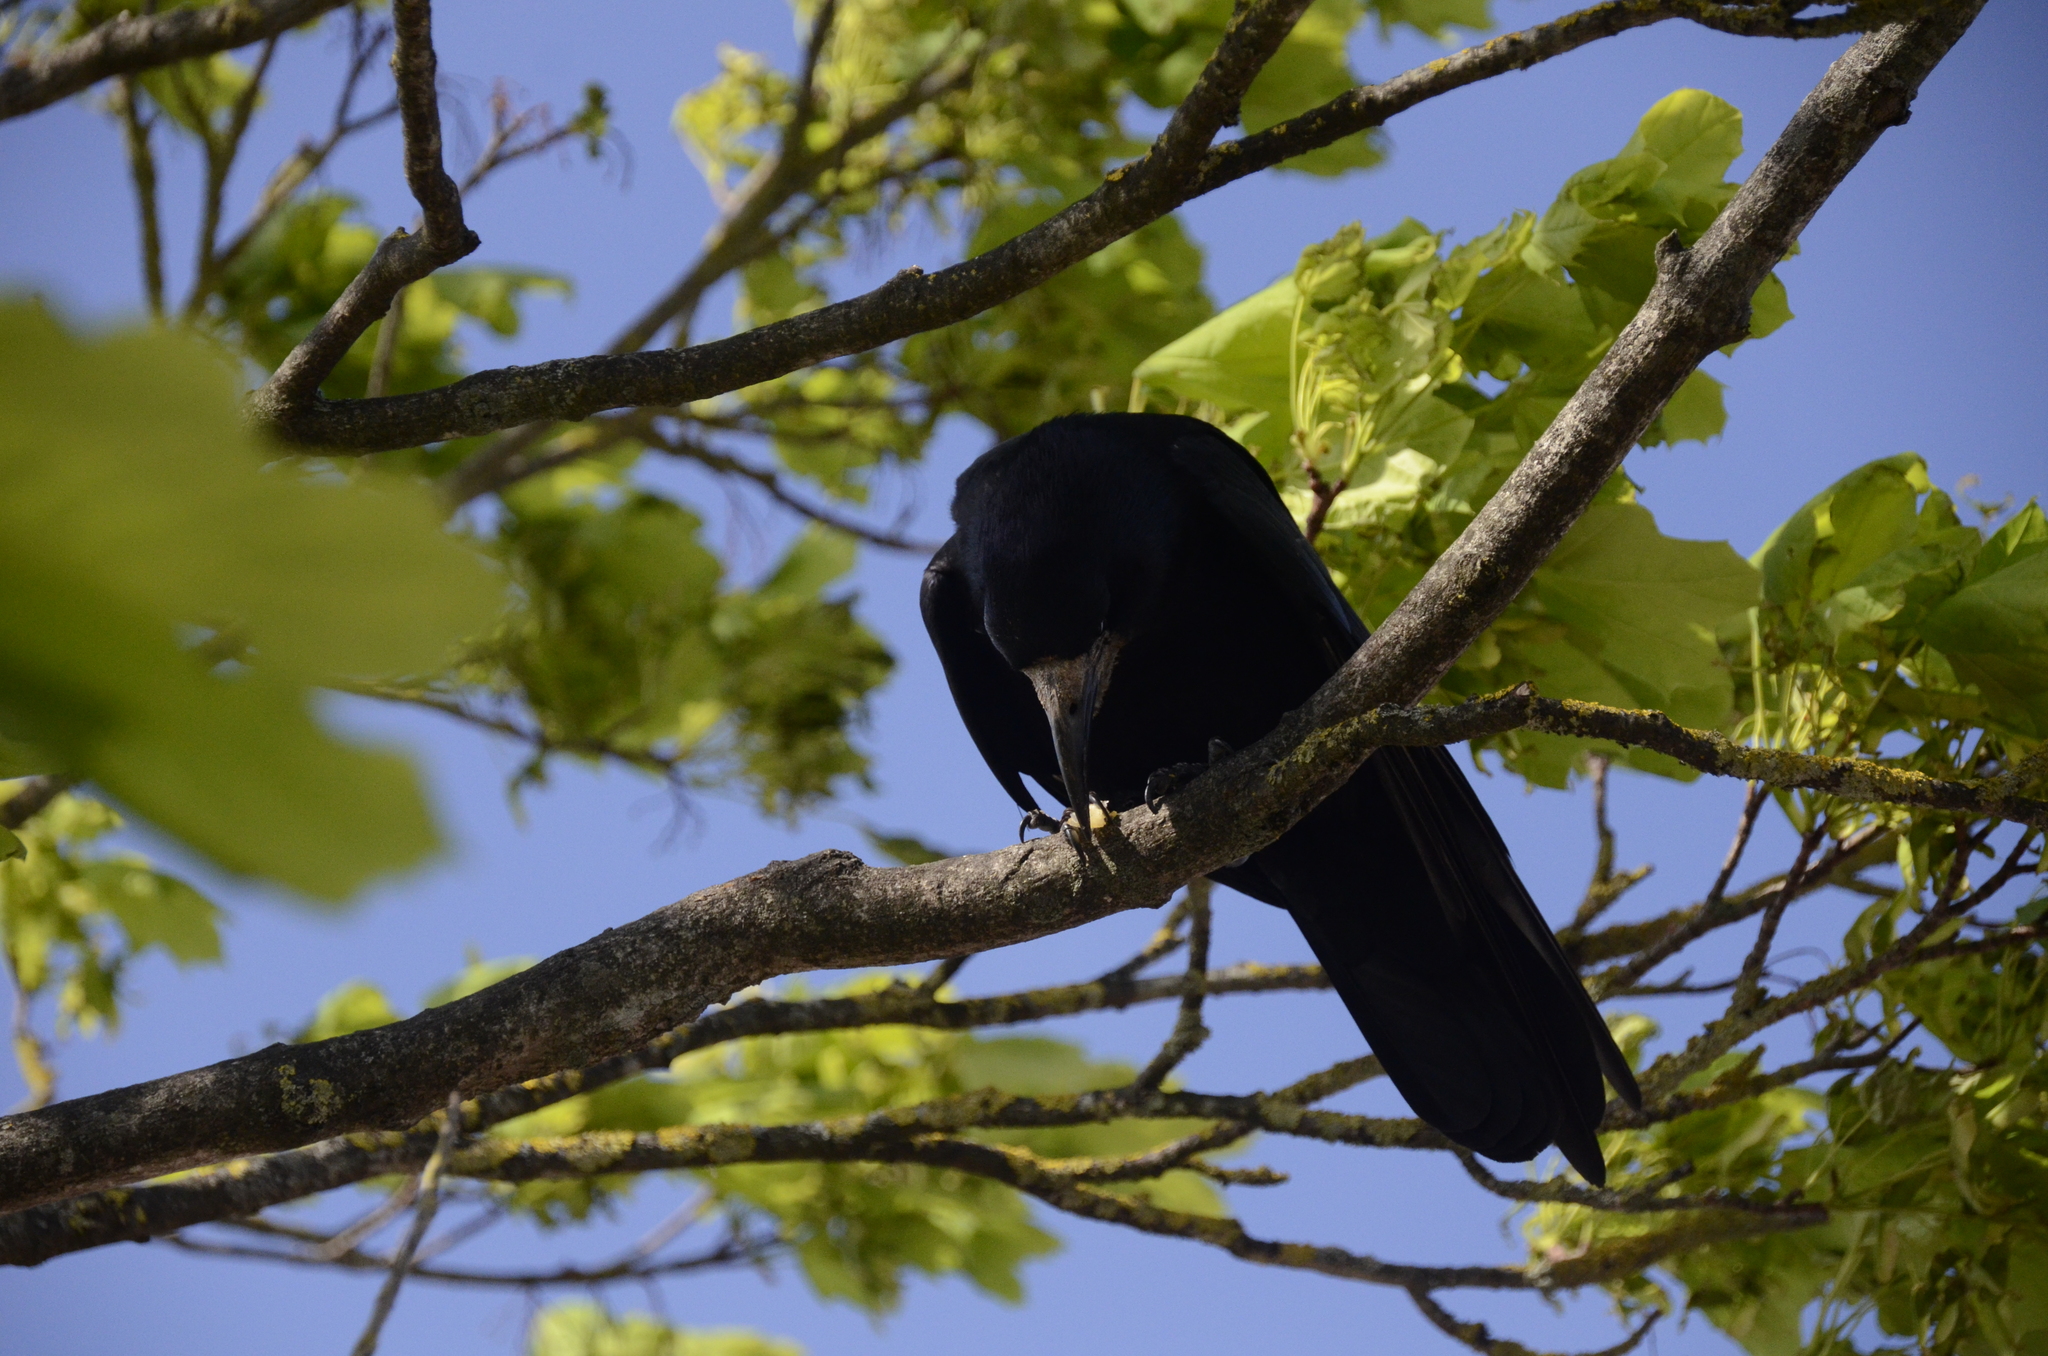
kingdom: Animalia
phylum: Chordata
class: Aves
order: Passeriformes
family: Corvidae
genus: Corvus
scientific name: Corvus frugilegus
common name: Rook
